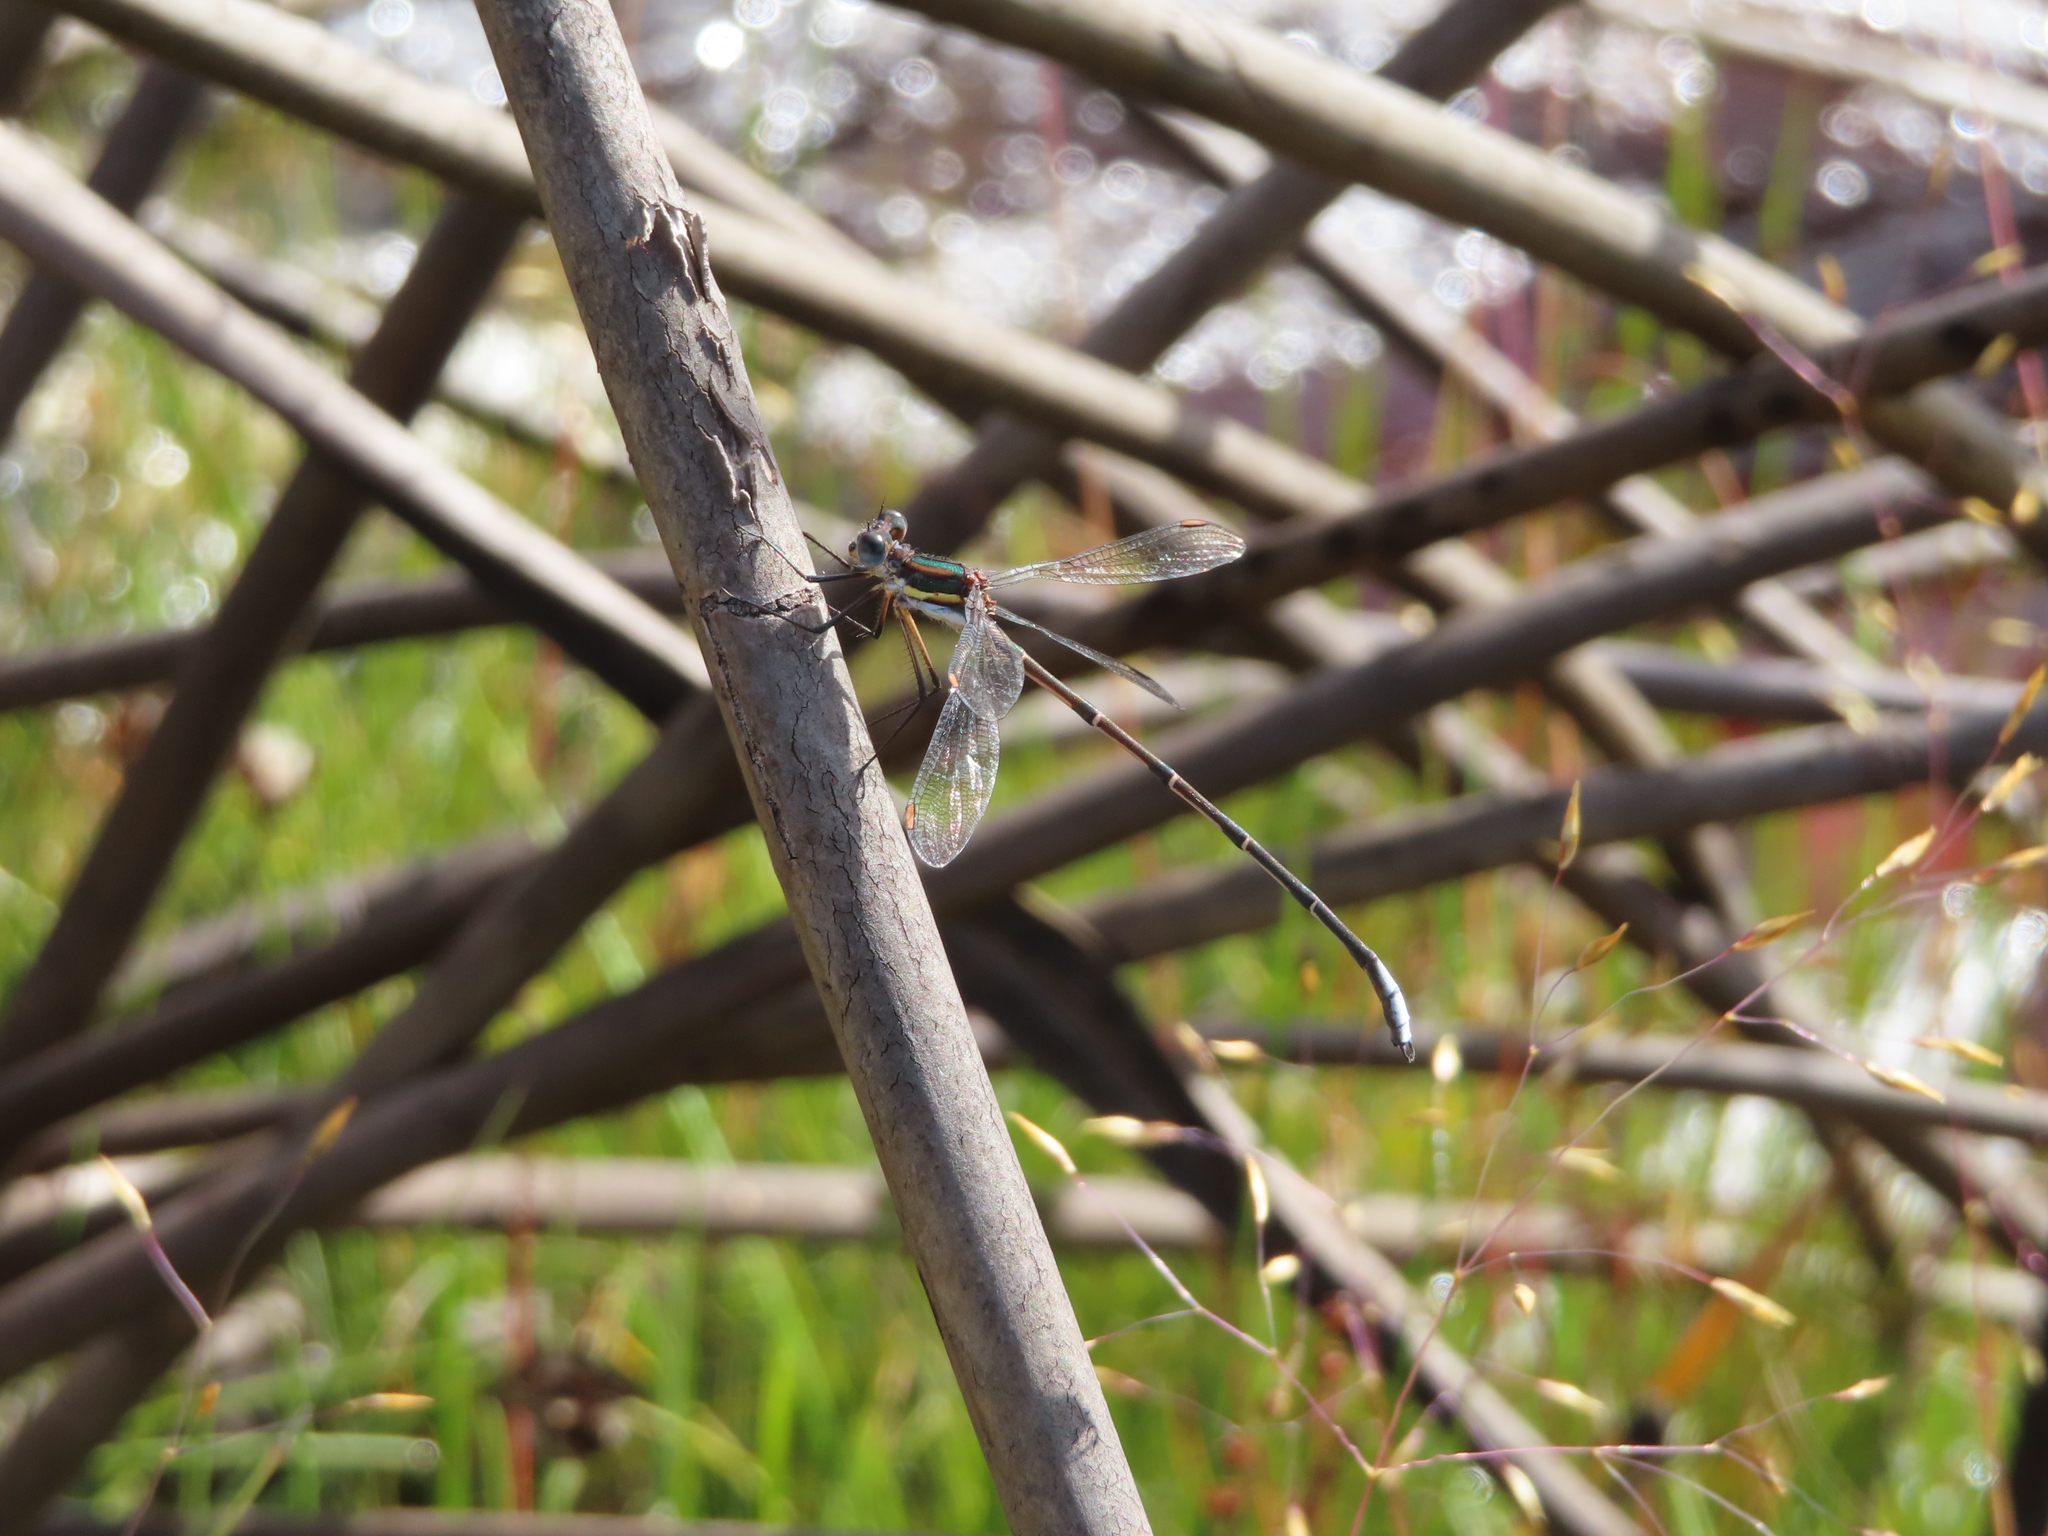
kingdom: Animalia
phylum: Arthropoda
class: Insecta
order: Odonata
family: Synlestidae
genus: Chlorolestes
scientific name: Chlorolestes conspicuus
